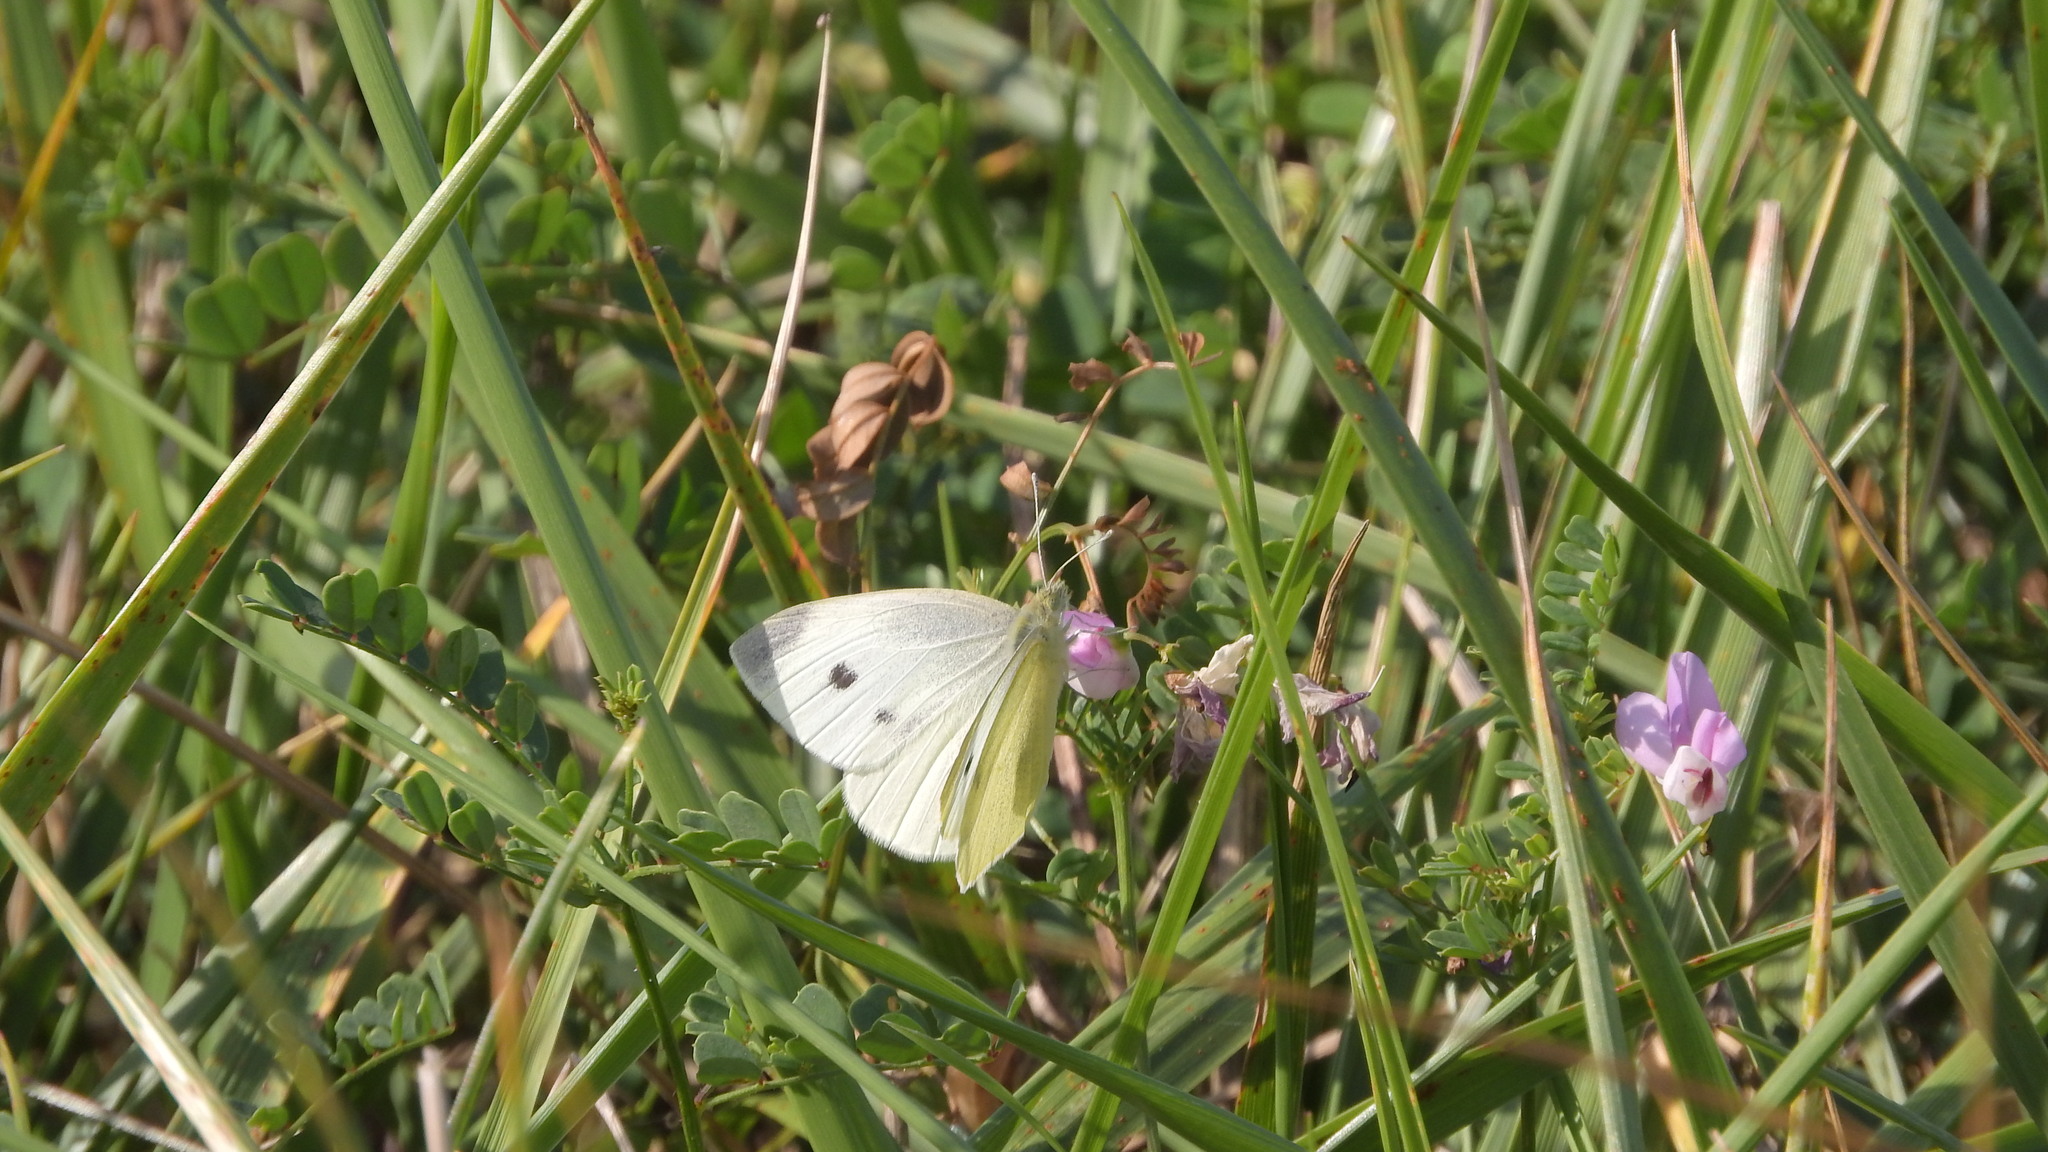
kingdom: Animalia
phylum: Arthropoda
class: Insecta
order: Lepidoptera
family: Pieridae
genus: Pieris
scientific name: Pieris rapae
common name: Small white
